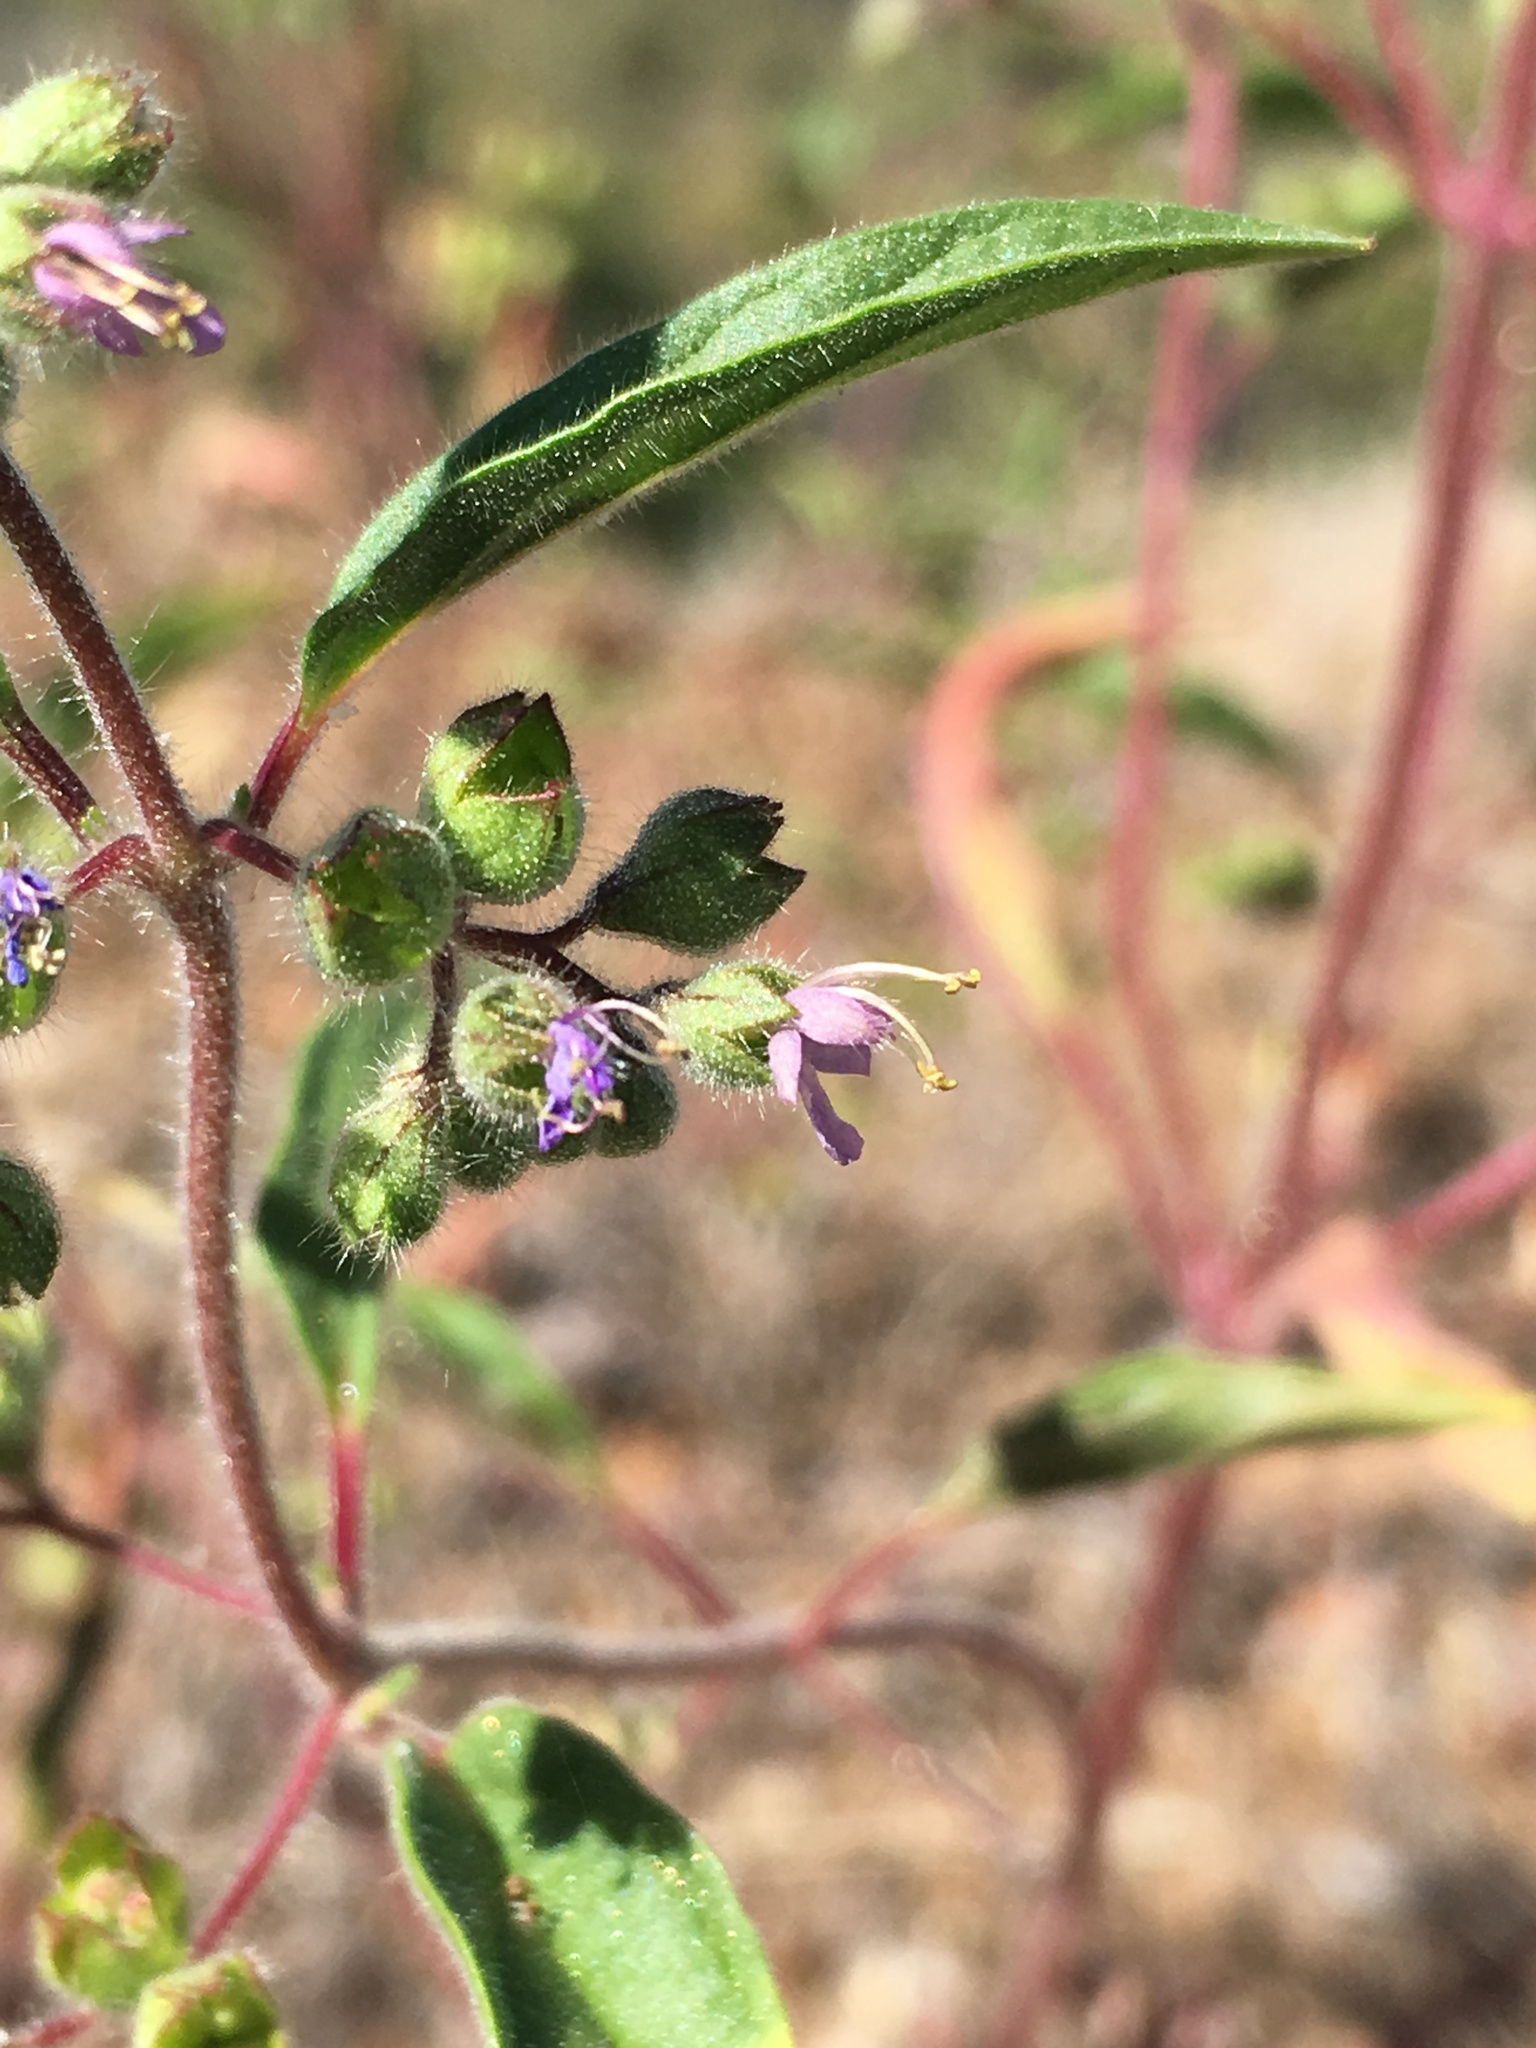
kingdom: Plantae
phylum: Tracheophyta
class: Magnoliopsida
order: Lamiales
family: Lamiaceae
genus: Trichostema
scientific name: Trichostema simulatum
